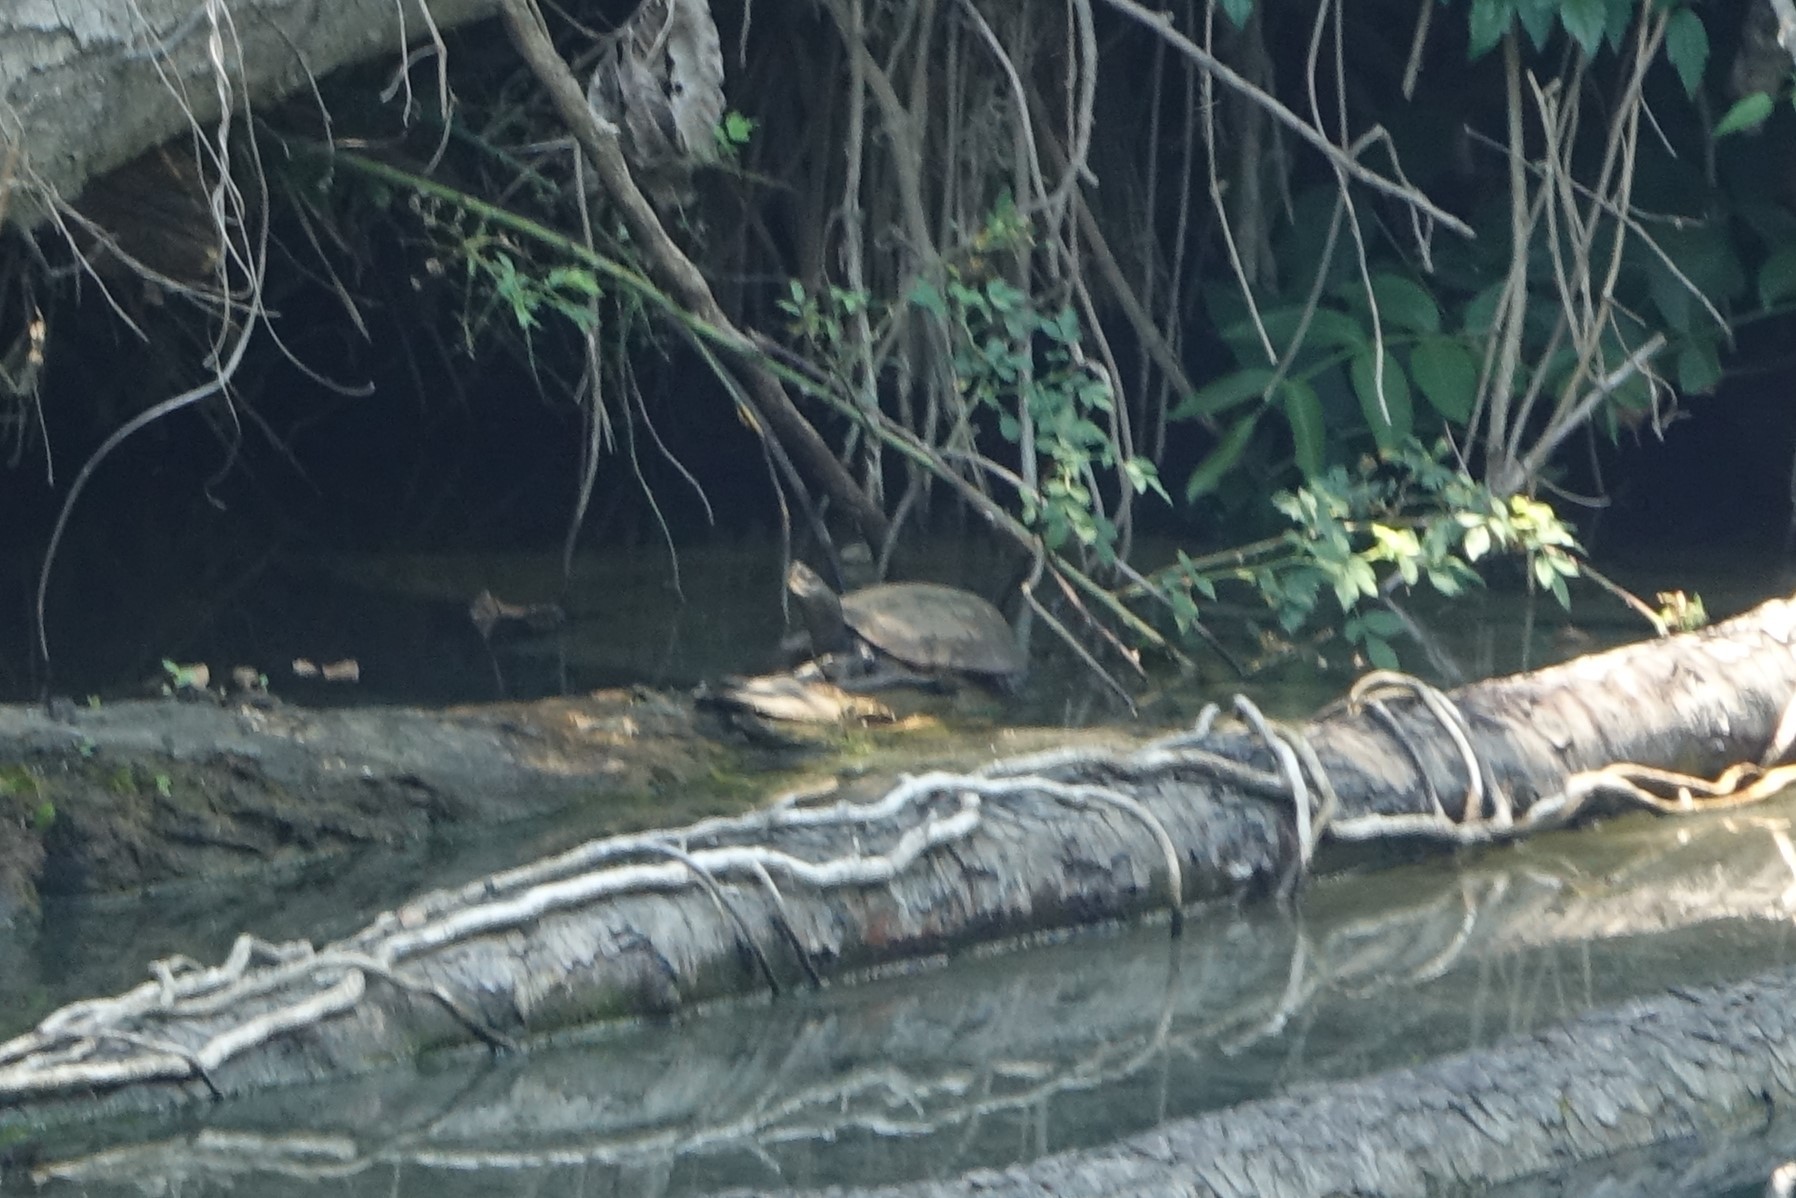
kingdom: Animalia
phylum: Chordata
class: Testudines
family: Geoemydidae
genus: Mauremys
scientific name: Mauremys leprosa
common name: Mediterranean pond turtle
